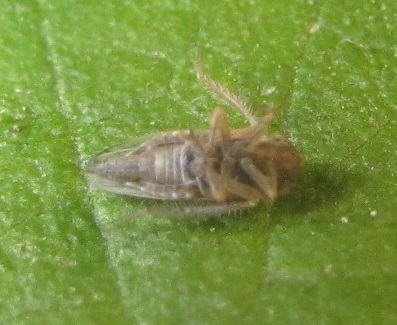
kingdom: Animalia
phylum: Arthropoda
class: Insecta
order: Hemiptera
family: Cicadellidae
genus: Exitianus
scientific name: Exitianus exitiosus
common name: Gray lawn leafhopper
